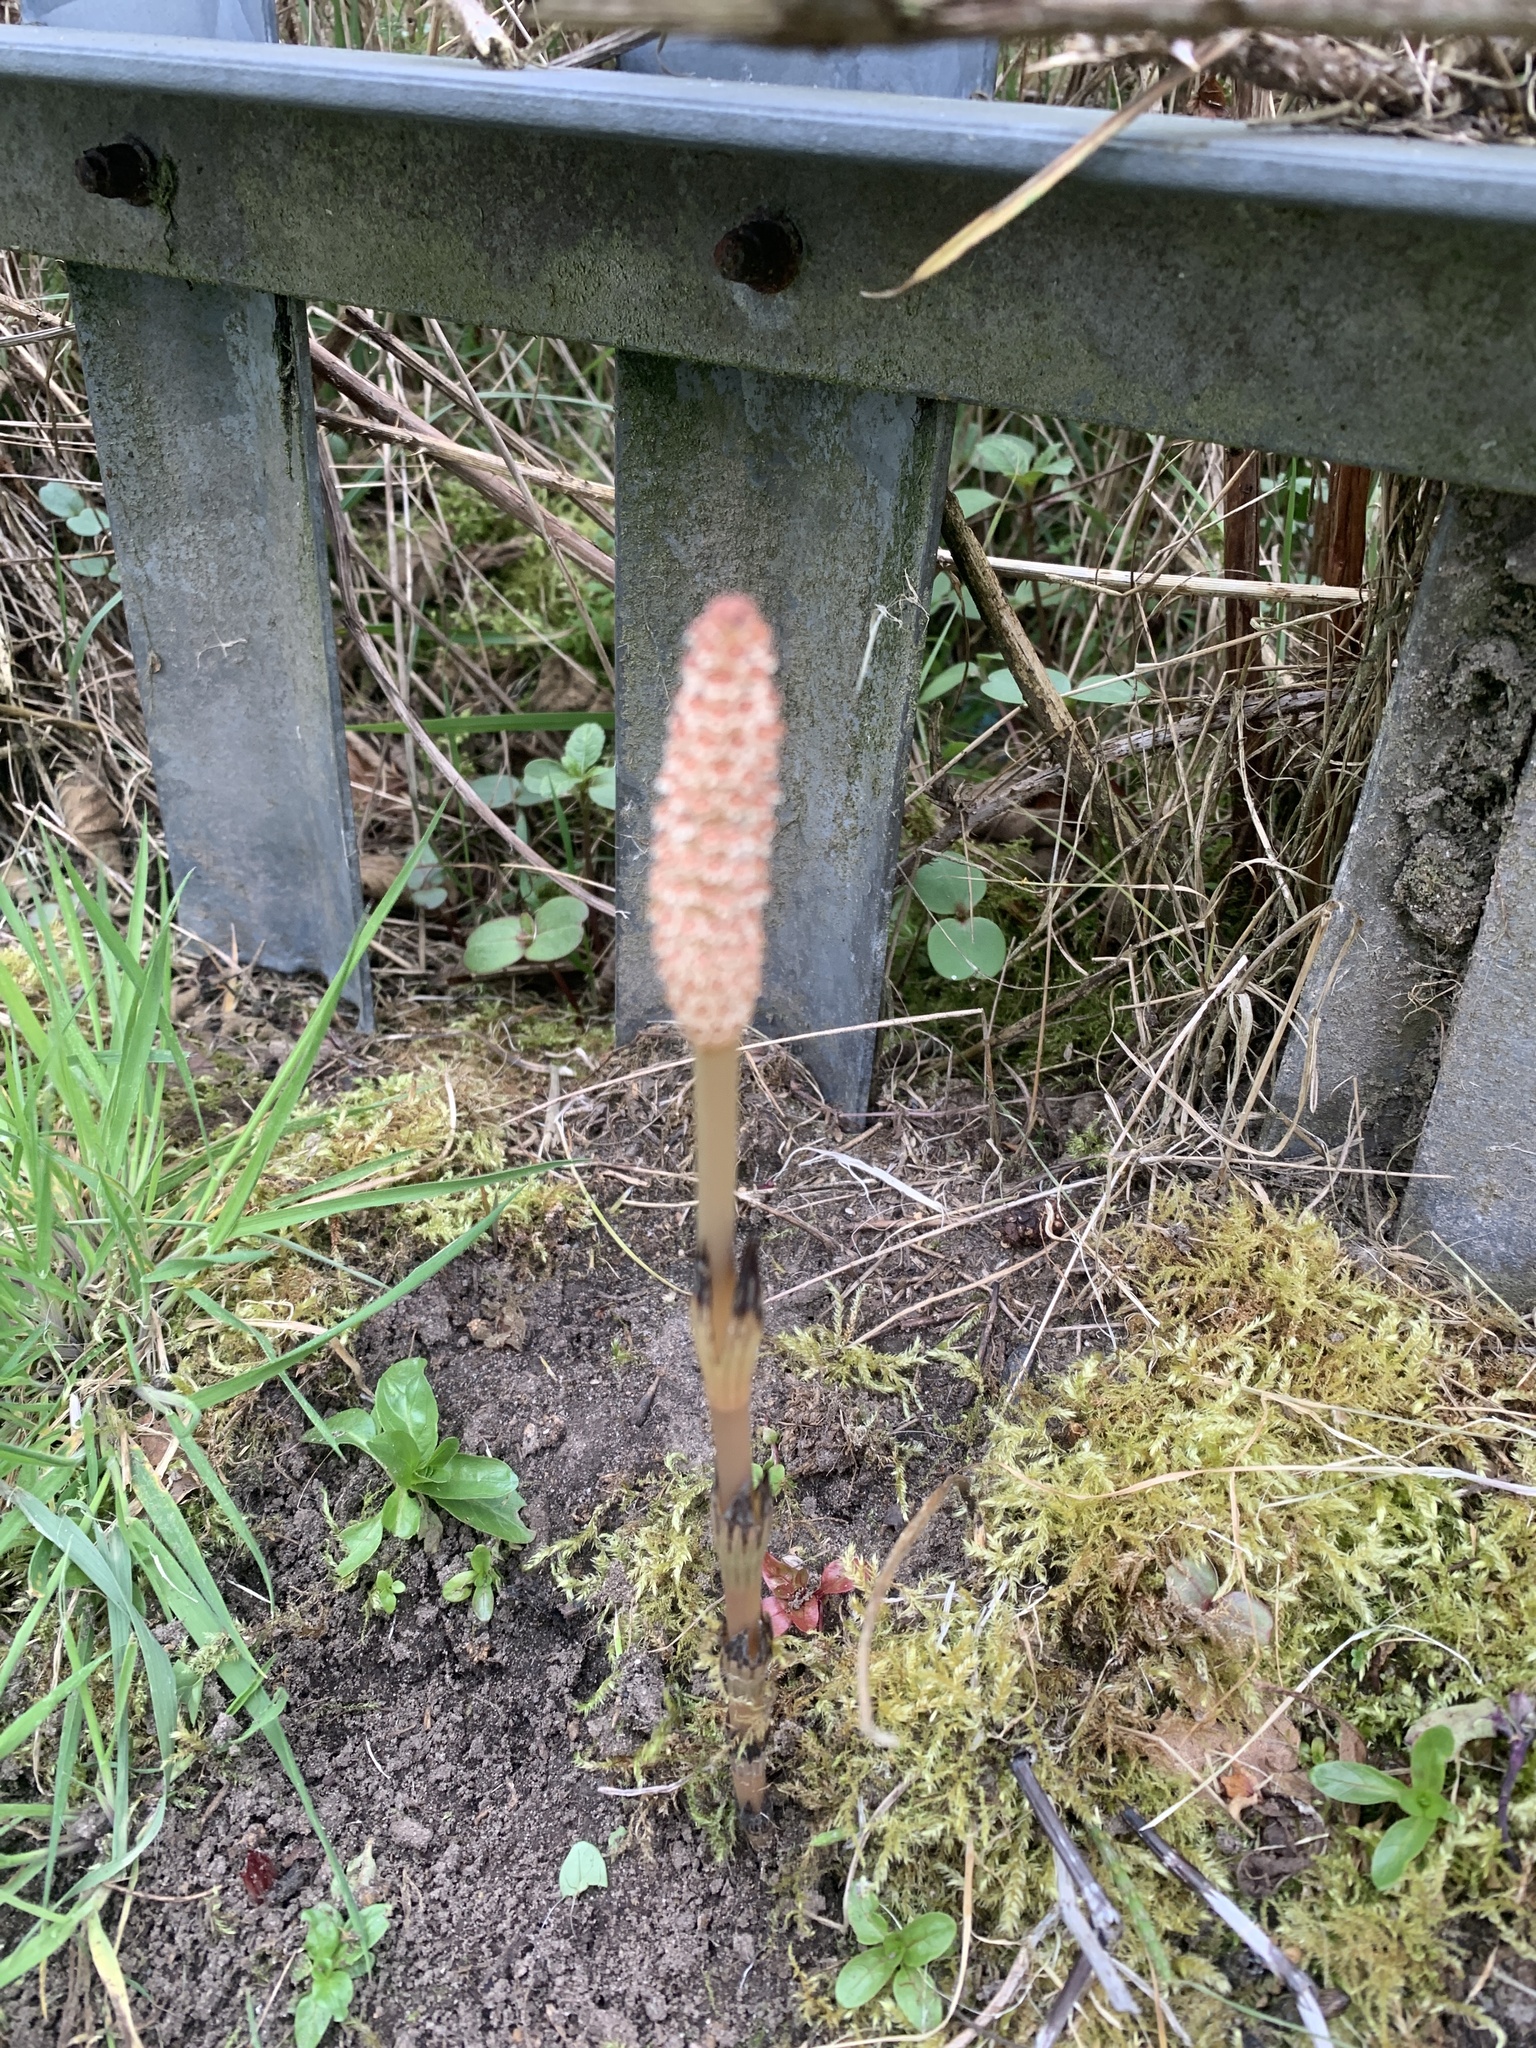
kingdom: Plantae
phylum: Tracheophyta
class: Polypodiopsida
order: Equisetales
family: Equisetaceae
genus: Equisetum
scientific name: Equisetum arvense
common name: Field horsetail
